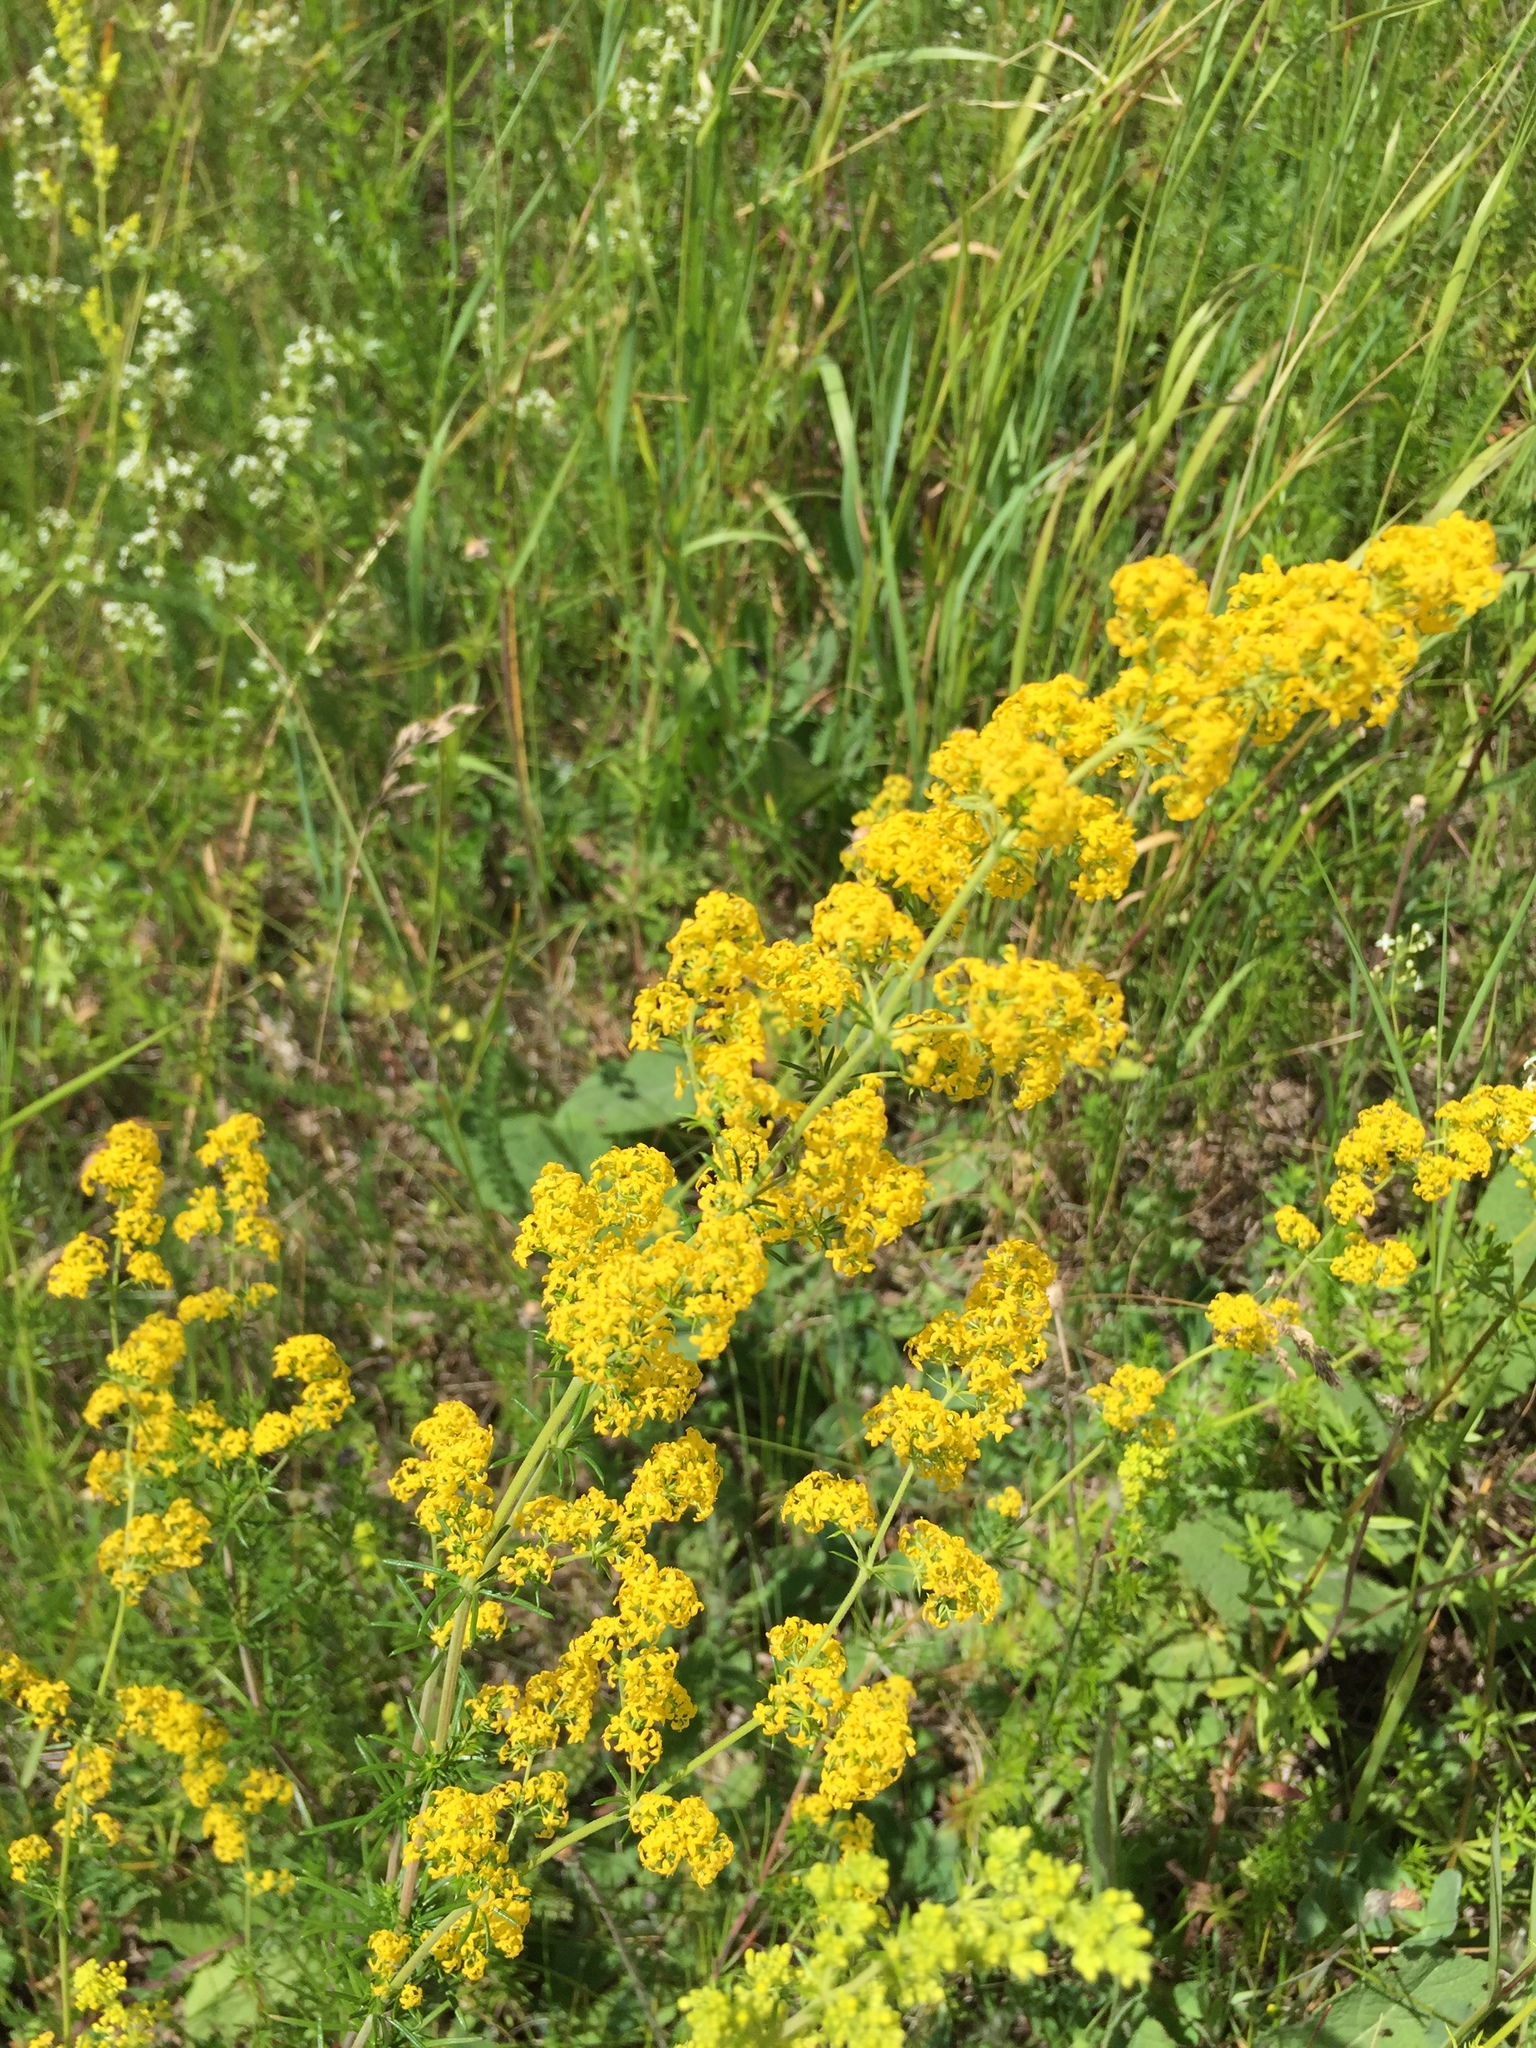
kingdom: Plantae
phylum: Tracheophyta
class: Magnoliopsida
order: Gentianales
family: Rubiaceae
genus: Galium
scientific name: Galium verum
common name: Lady's bedstraw
